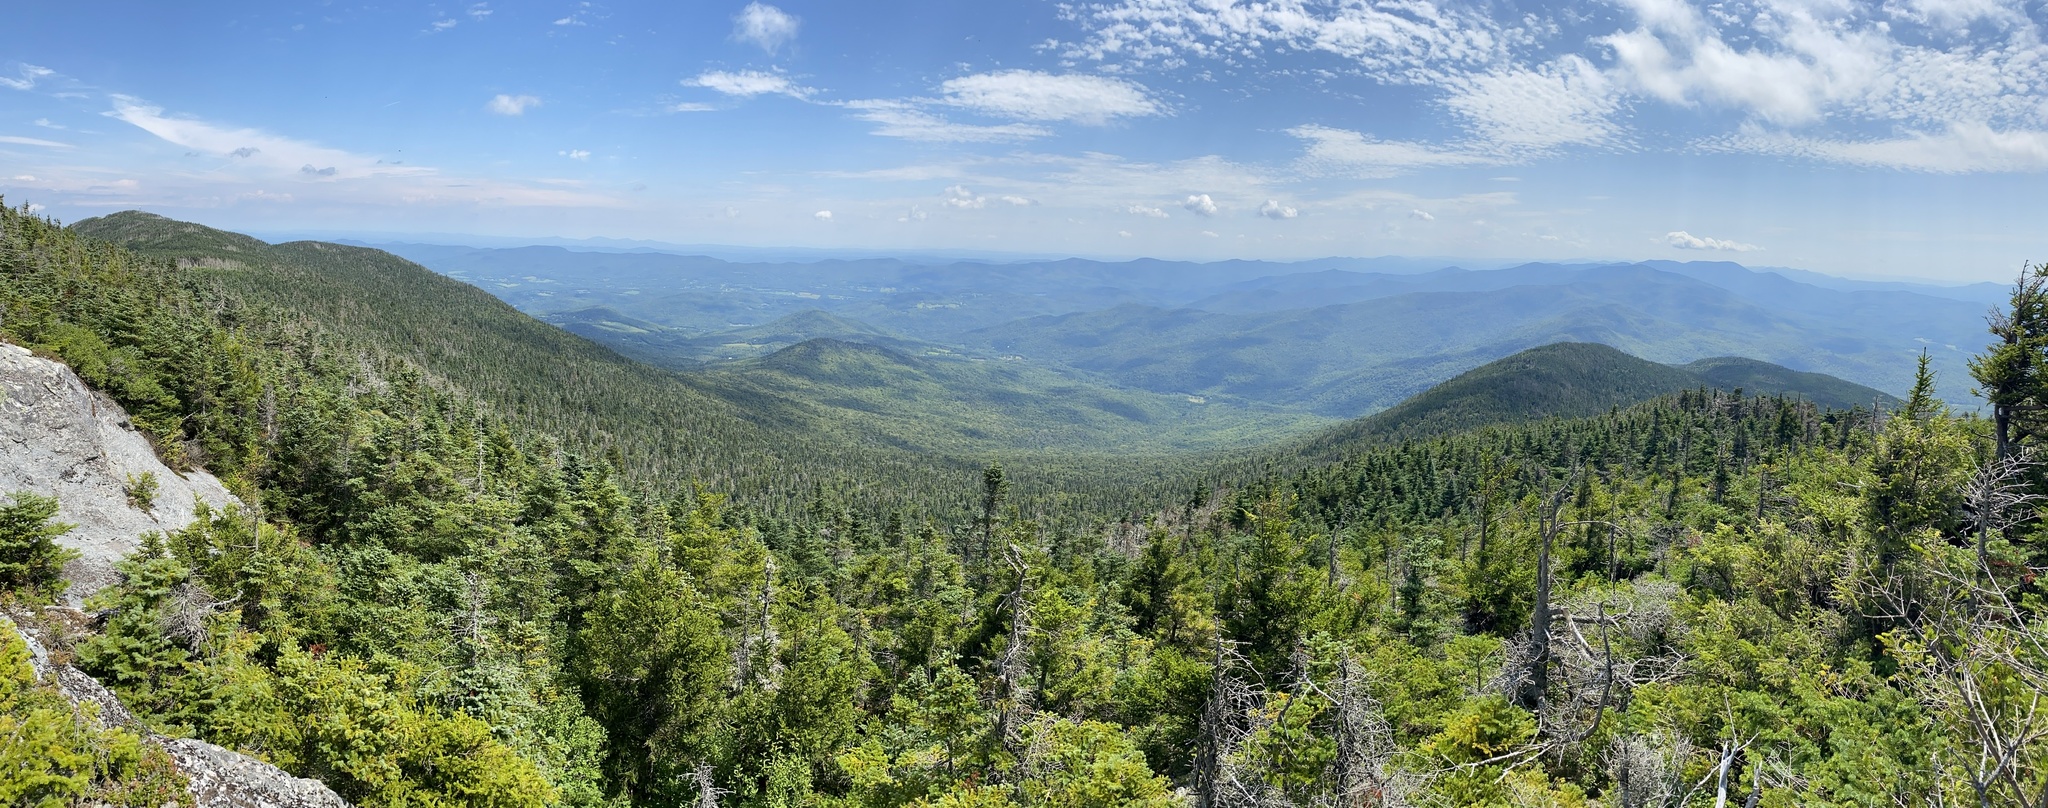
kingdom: Plantae
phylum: Tracheophyta
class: Pinopsida
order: Pinales
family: Pinaceae
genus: Abies
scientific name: Abies balsamea
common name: Balsam fir
